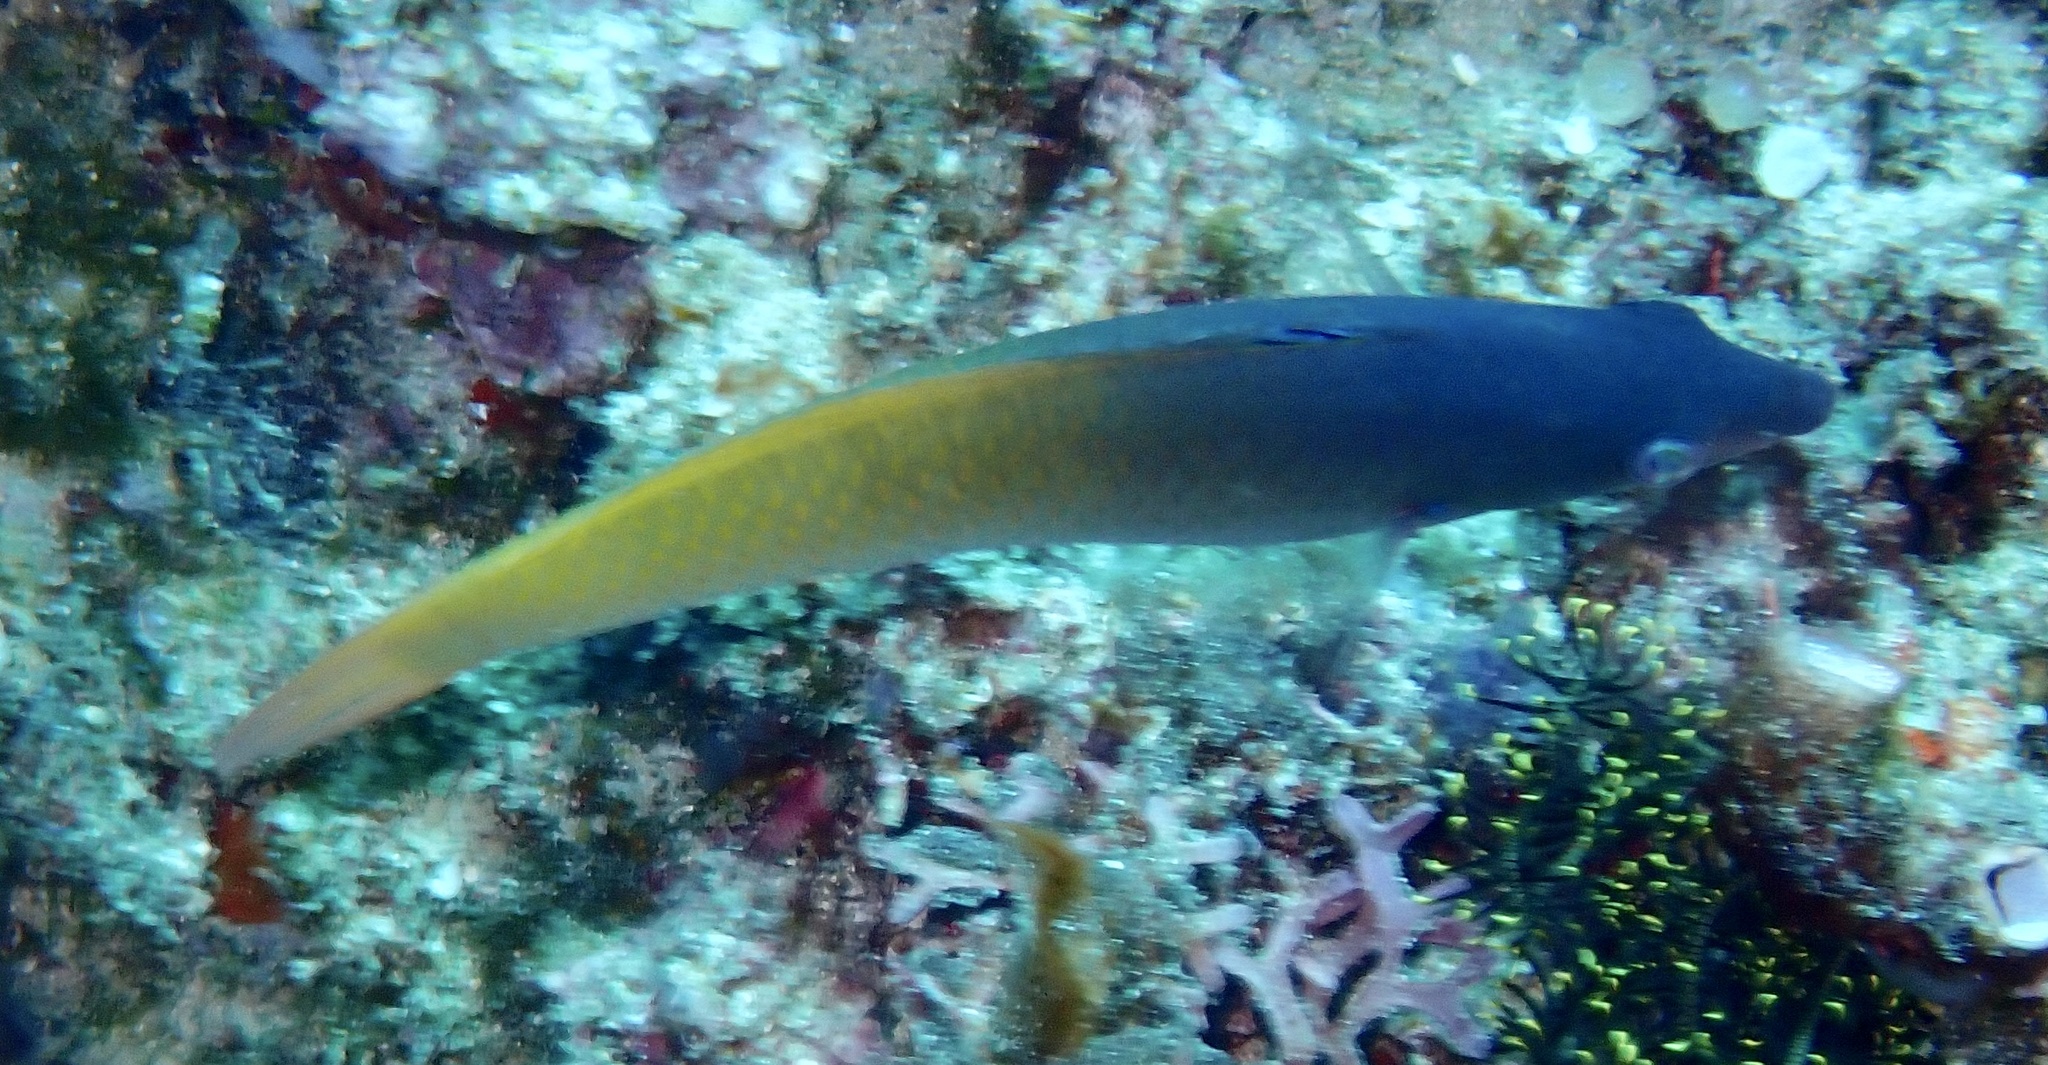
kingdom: Animalia
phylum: Chordata
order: Perciformes
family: Labridae
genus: Halichoeres
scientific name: Halichoeres prosopeion
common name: Half-grey wrasse
